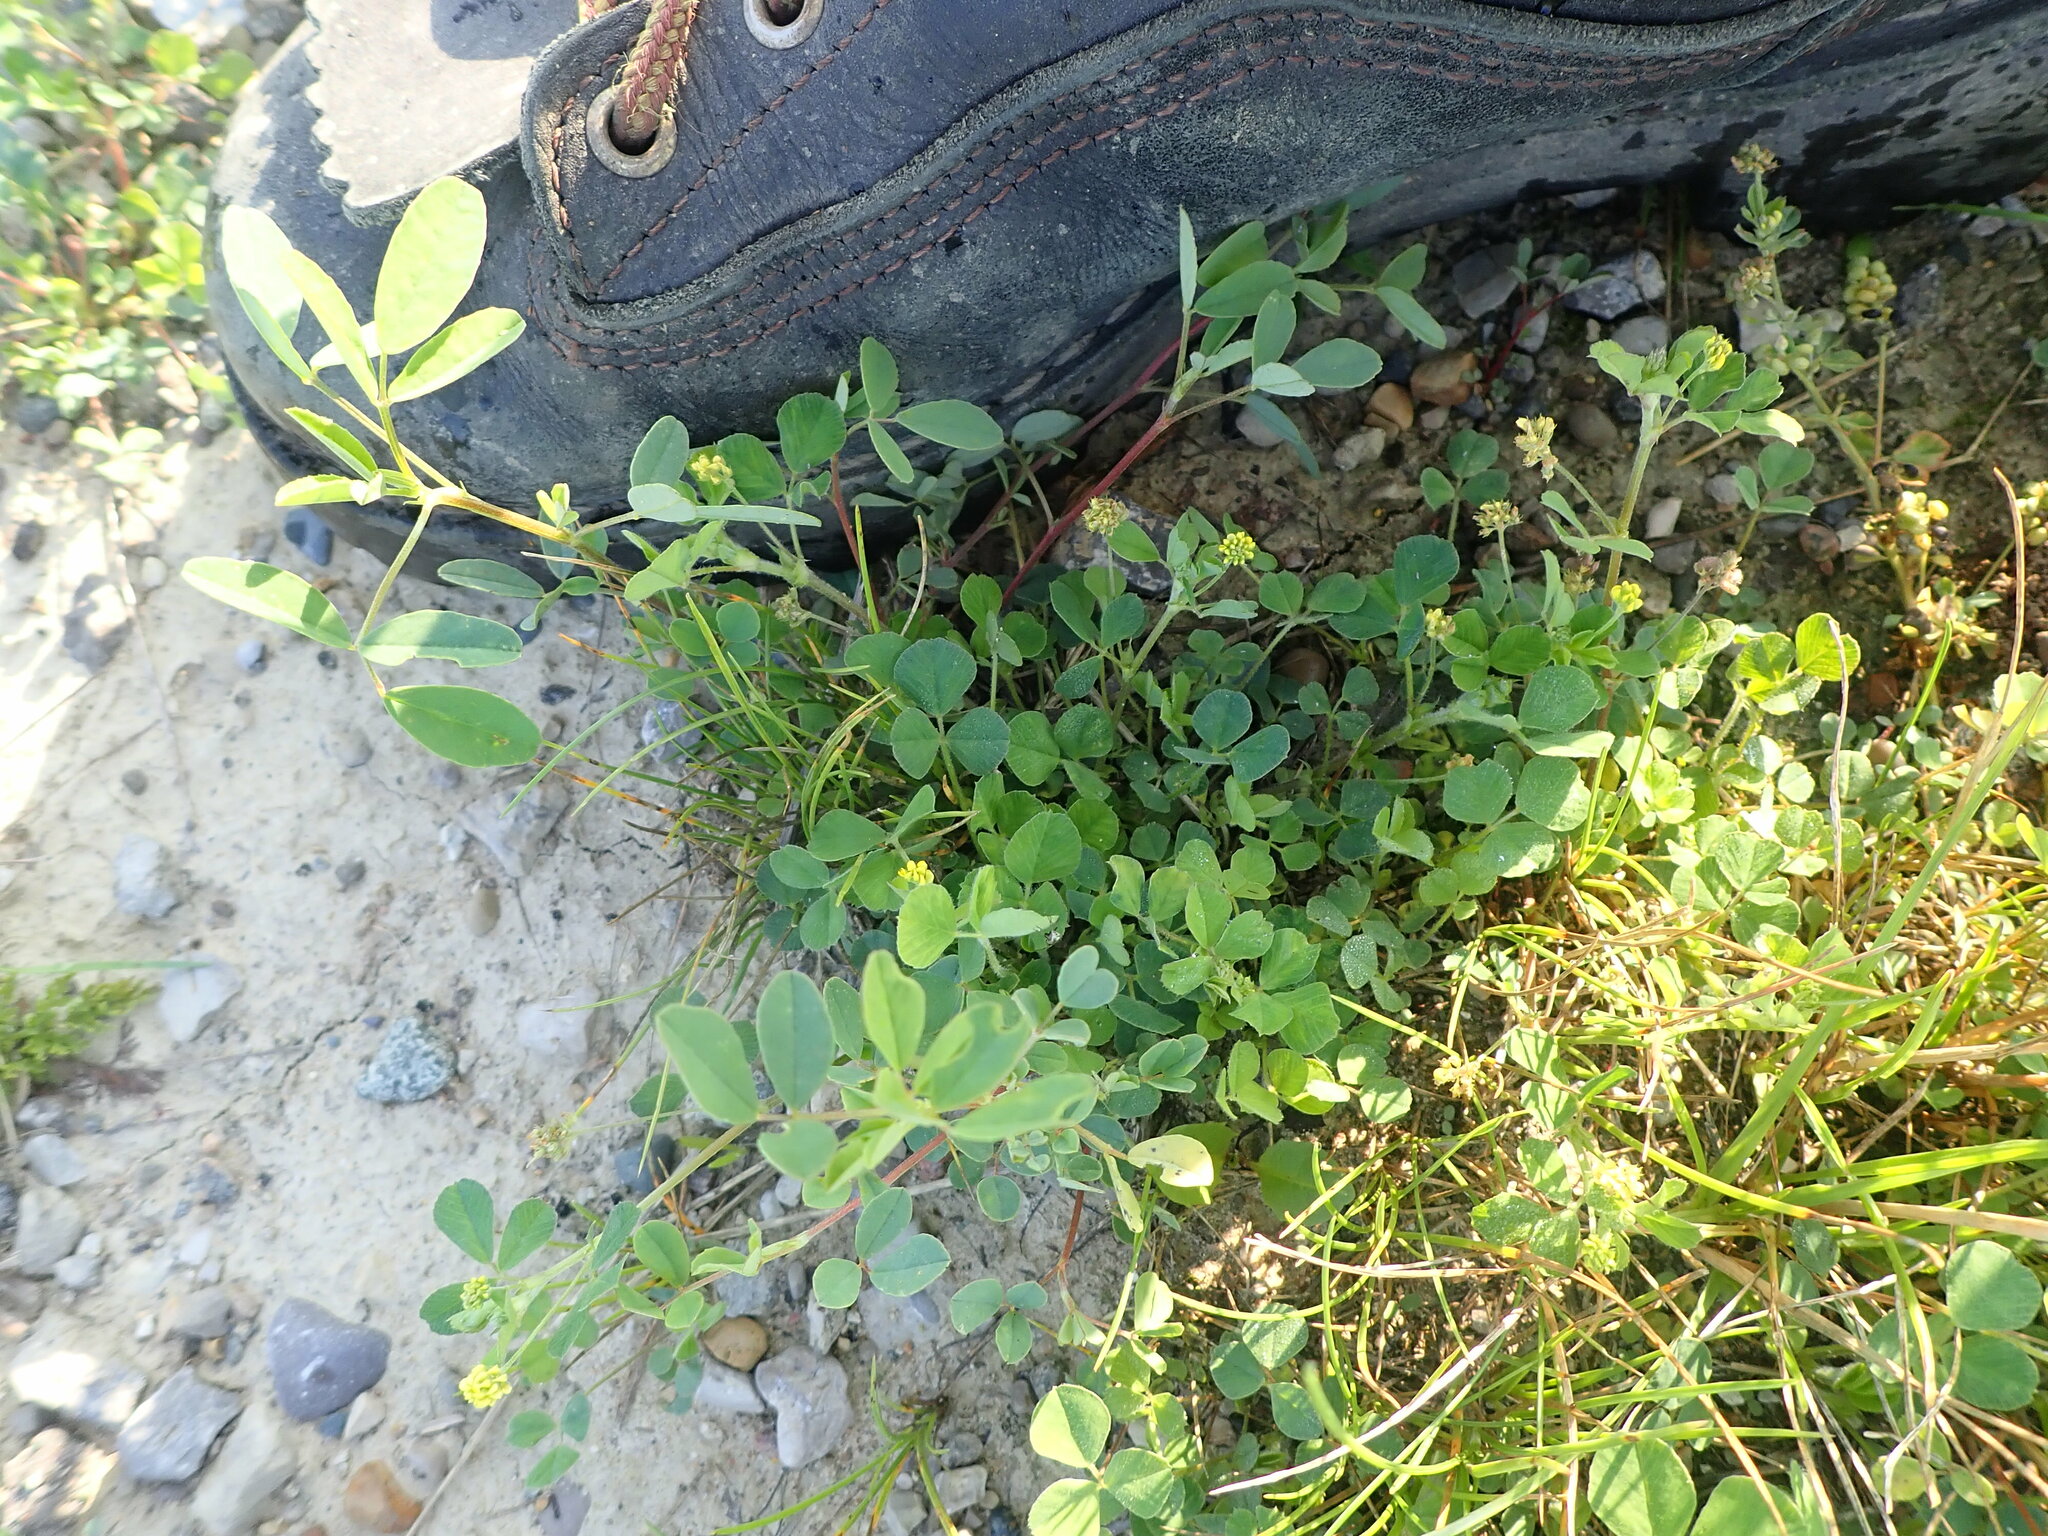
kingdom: Plantae
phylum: Tracheophyta
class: Magnoliopsida
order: Fabales
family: Fabaceae
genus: Medicago
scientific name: Medicago lupulina
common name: Black medick
